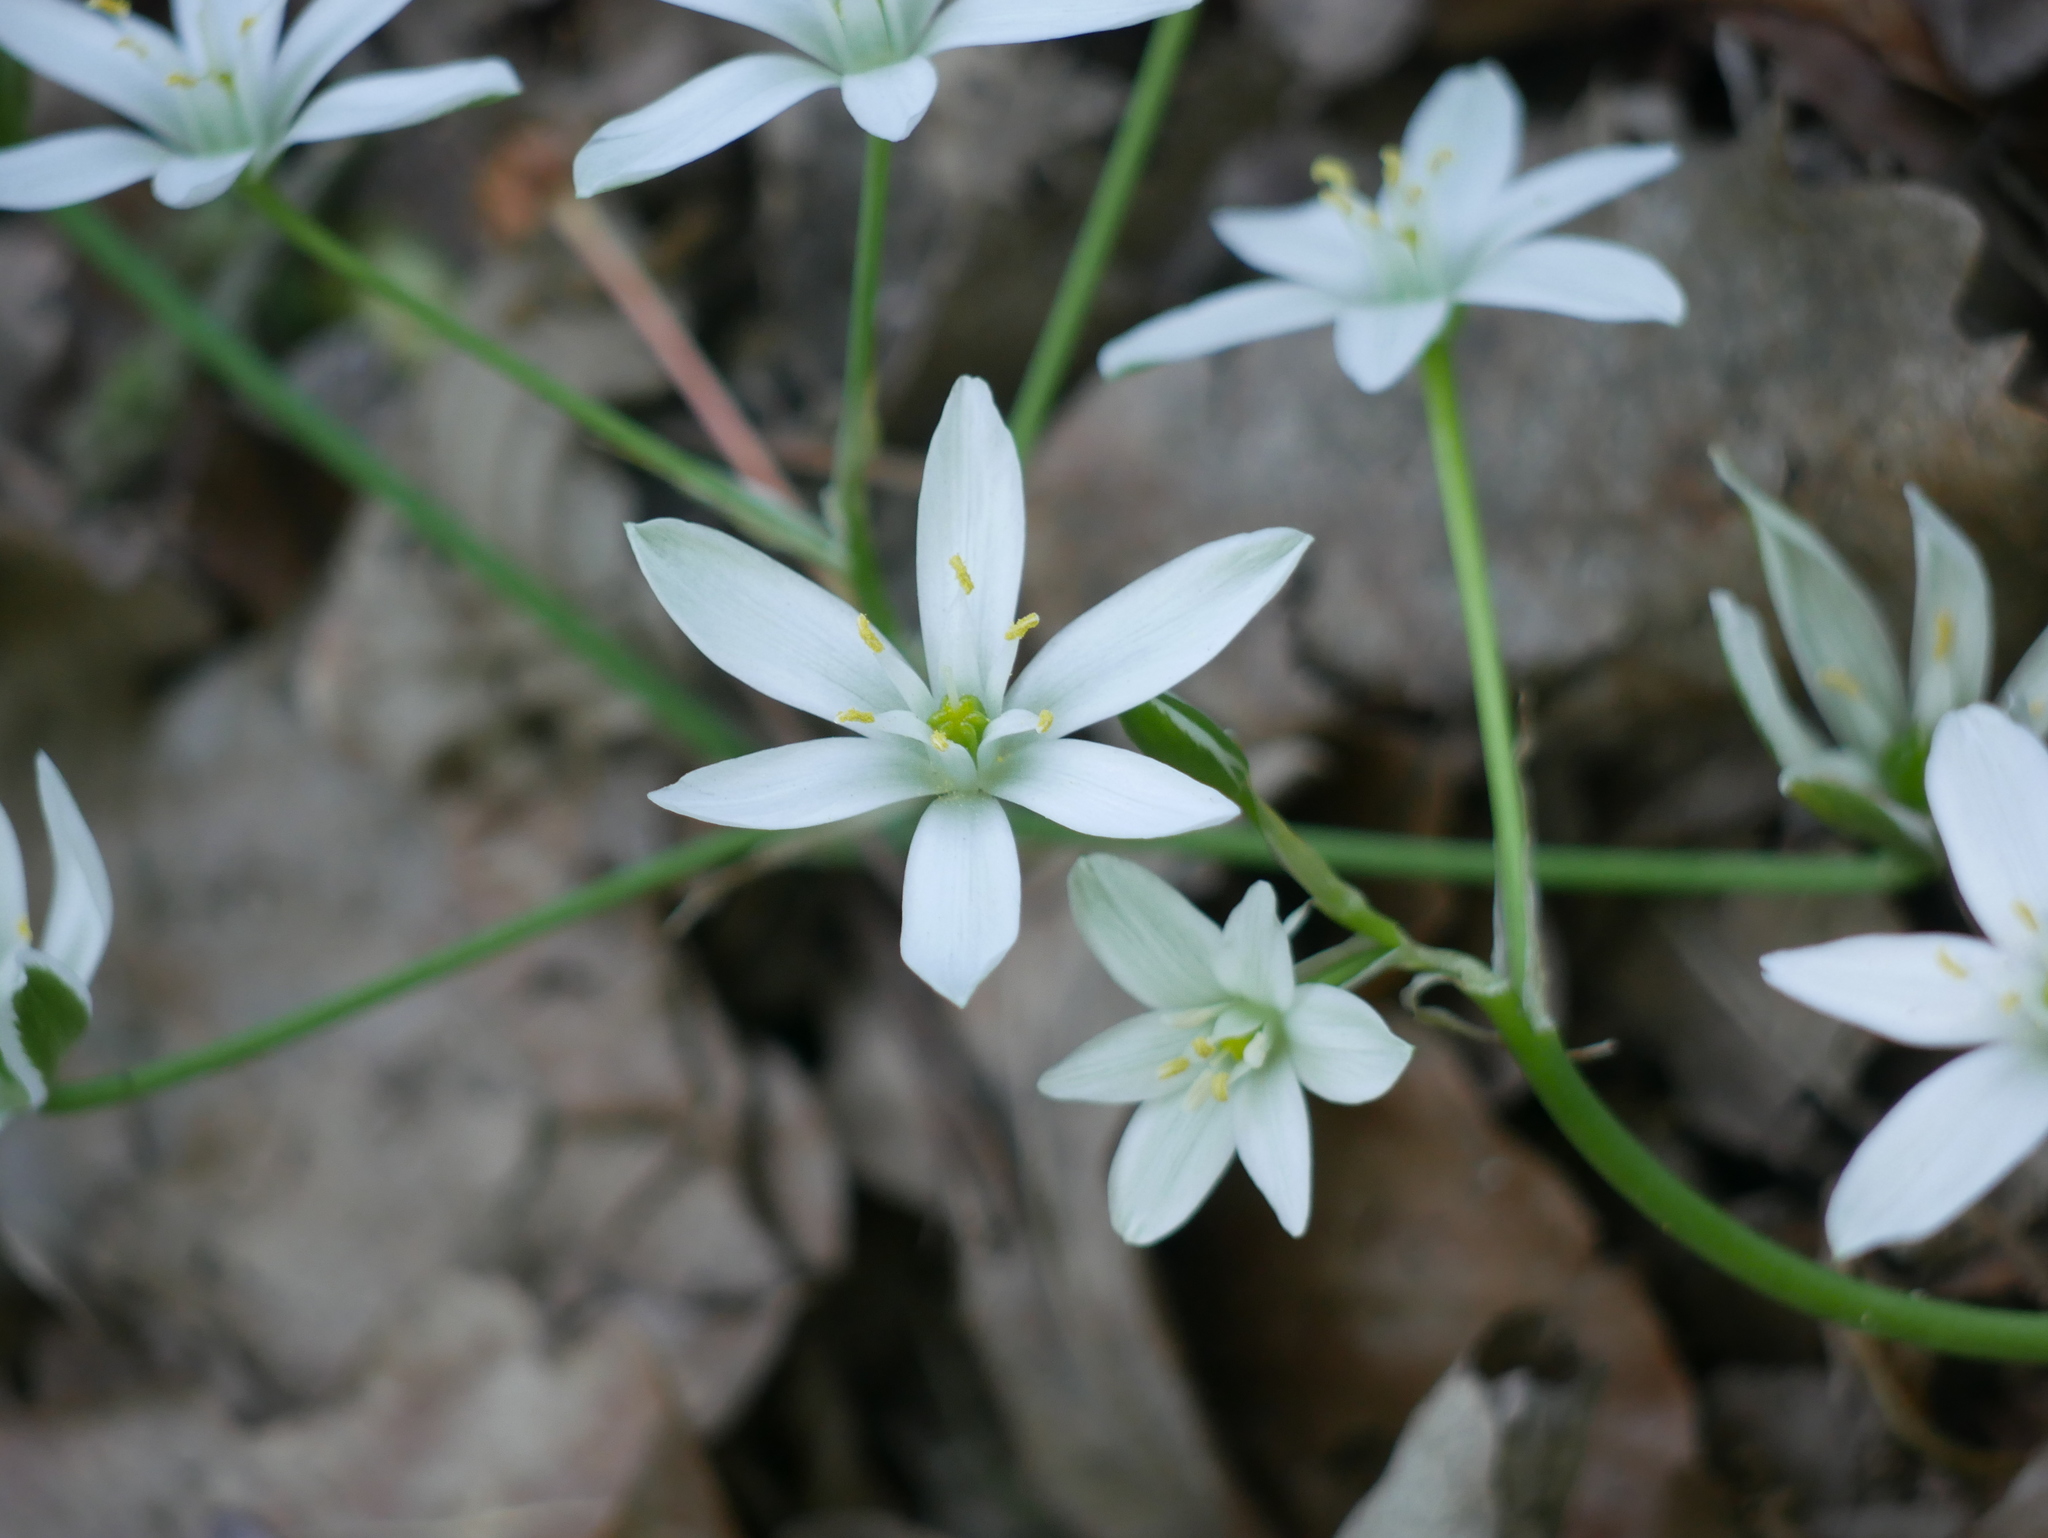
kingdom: Plantae
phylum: Tracheophyta
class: Liliopsida
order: Asparagales
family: Asparagaceae
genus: Ornithogalum
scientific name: Ornithogalum umbellatum
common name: Garden star-of-bethlehem
